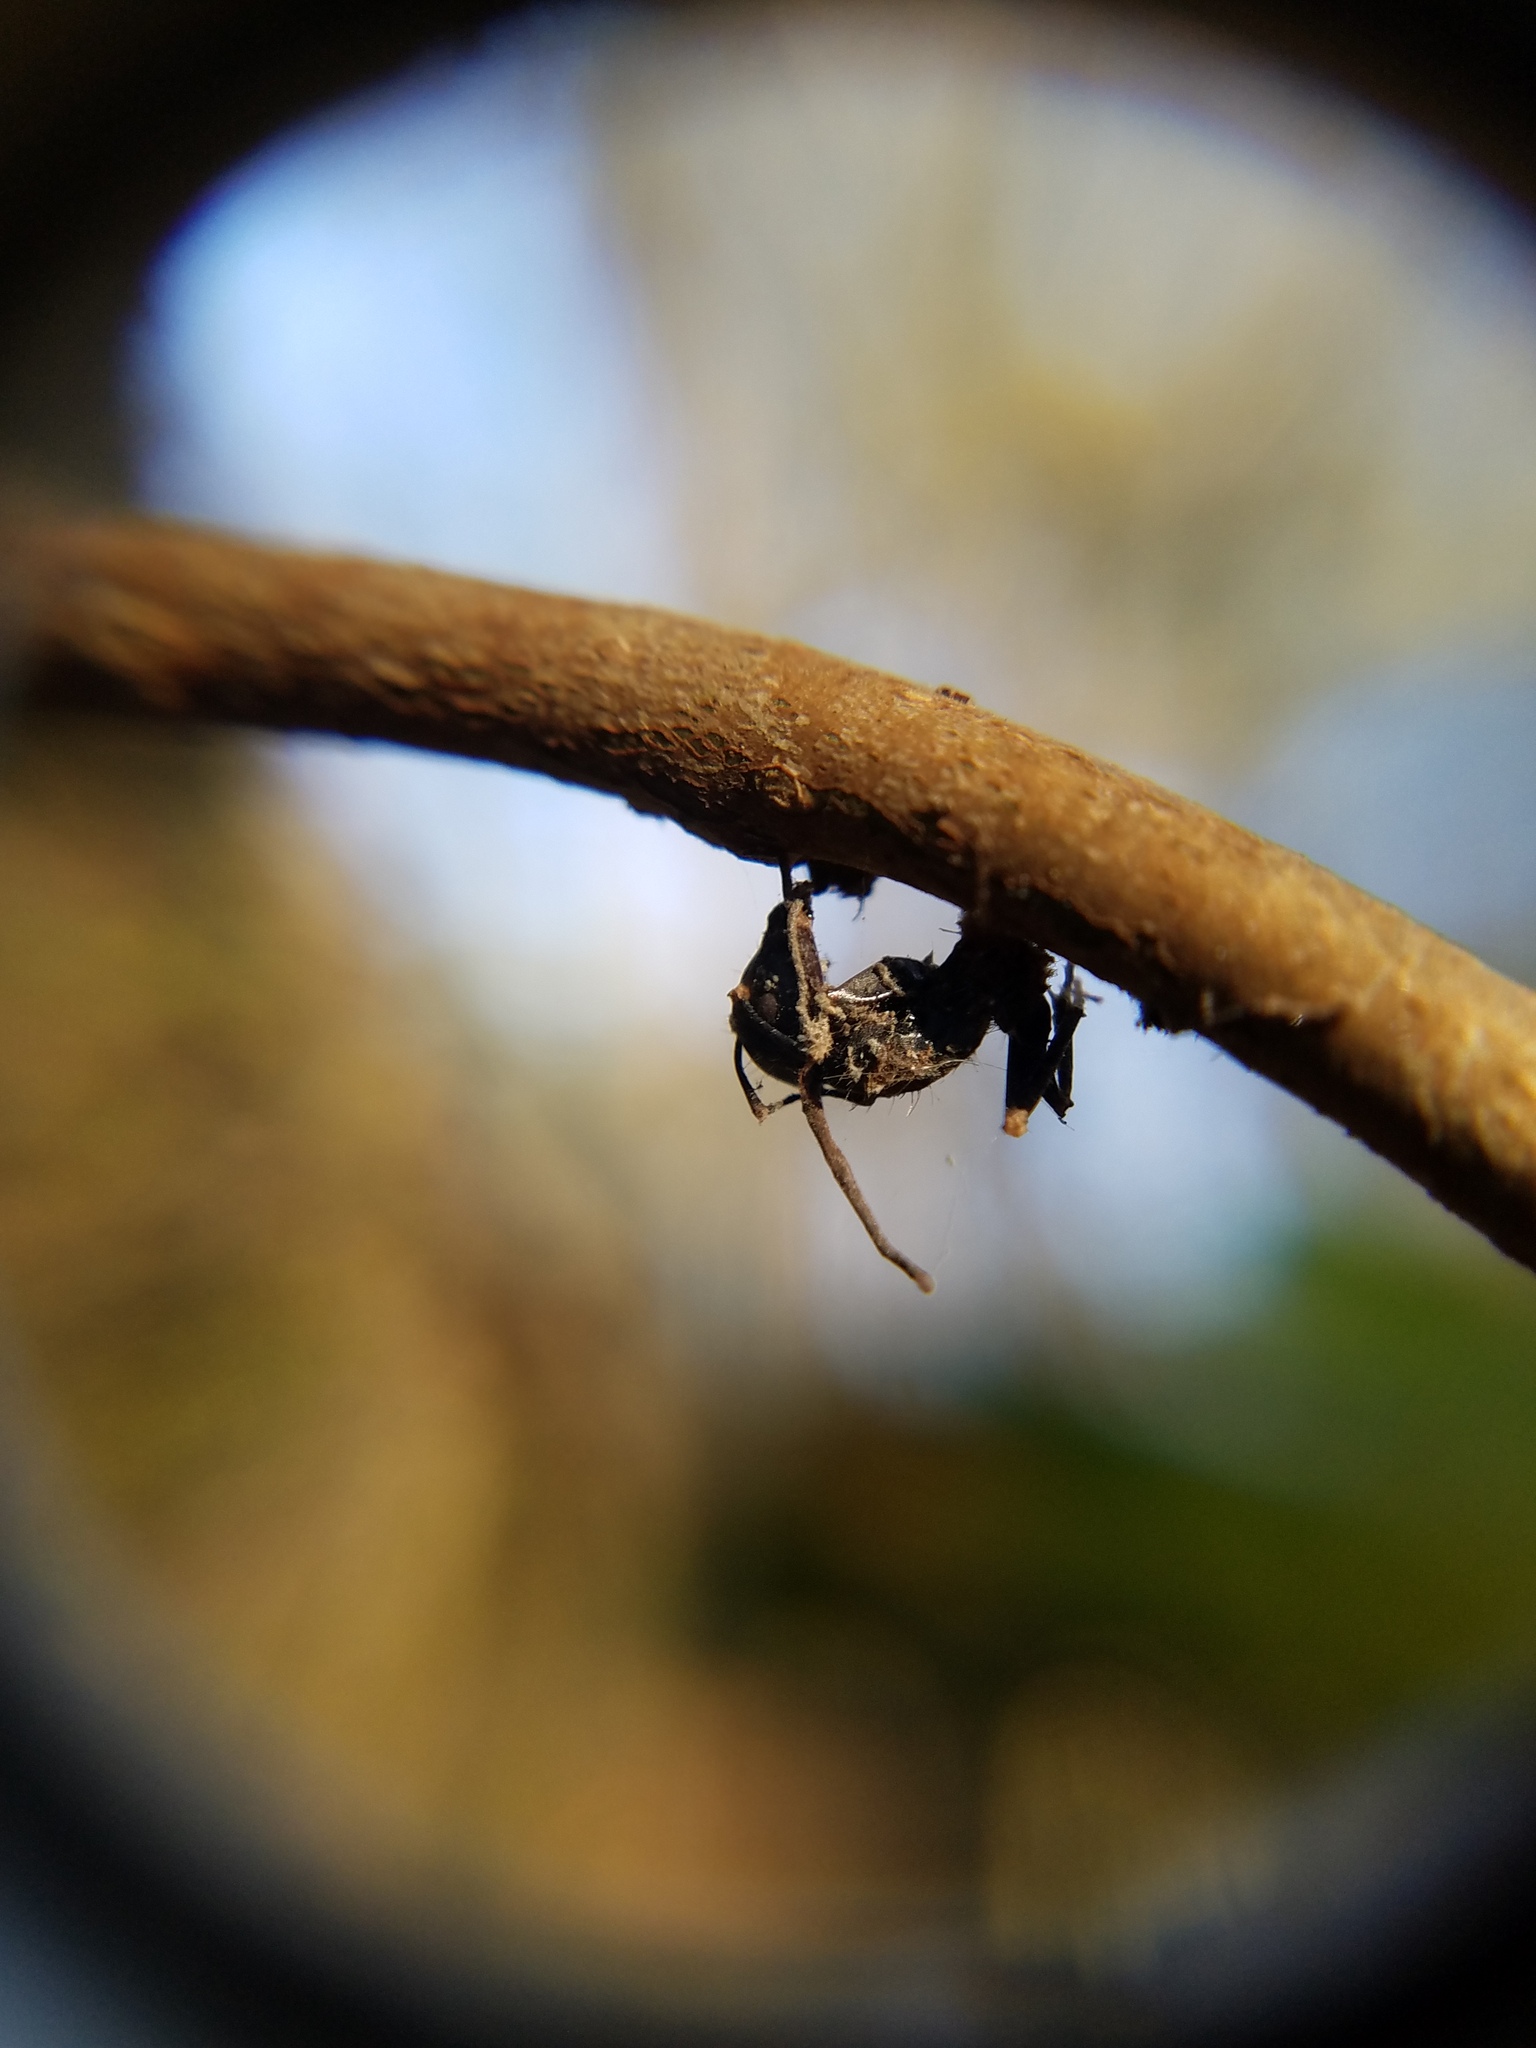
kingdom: Fungi
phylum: Ascomycota
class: Sordariomycetes
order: Hypocreales
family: Ophiocordycipitaceae
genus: Ophiocordyceps
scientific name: Ophiocordyceps kimflemingiae
